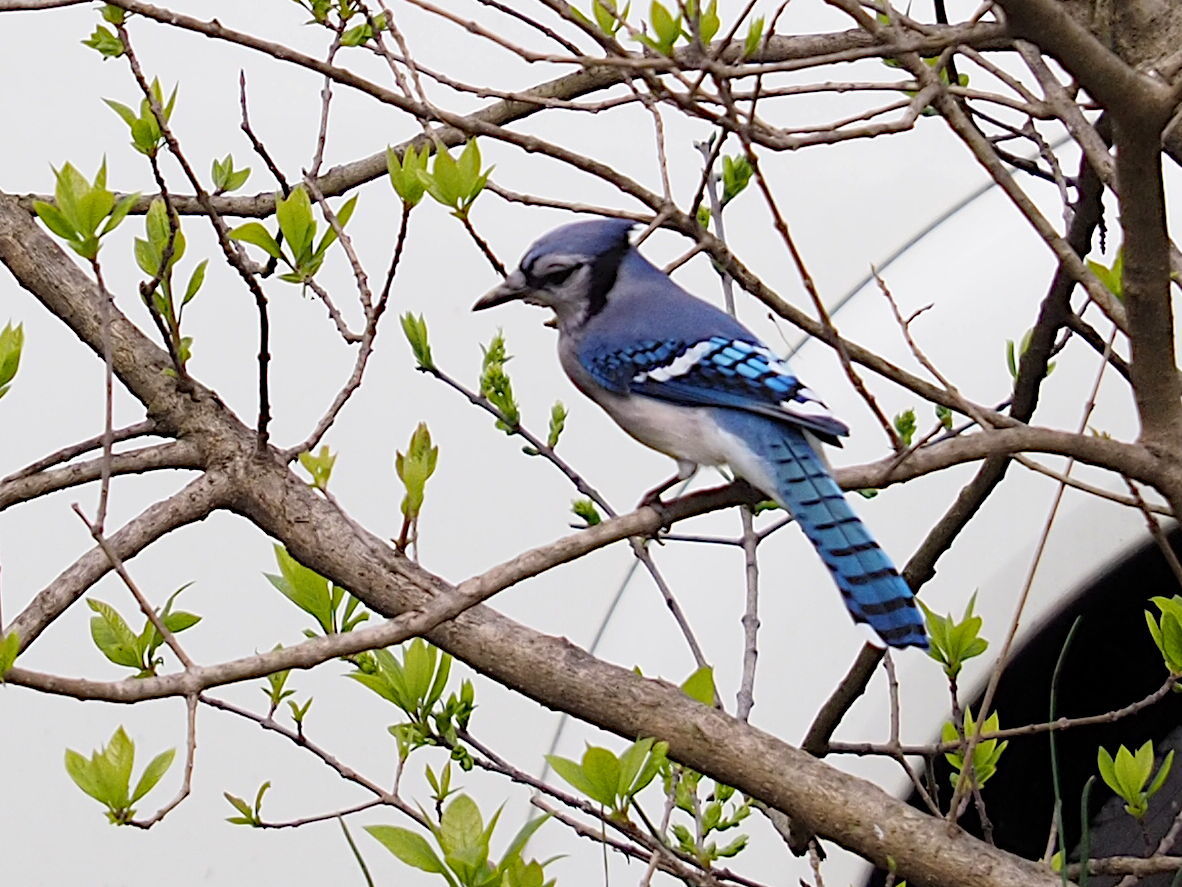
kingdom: Animalia
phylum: Chordata
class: Aves
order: Passeriformes
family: Corvidae
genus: Cyanocitta
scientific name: Cyanocitta cristata
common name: Blue jay
